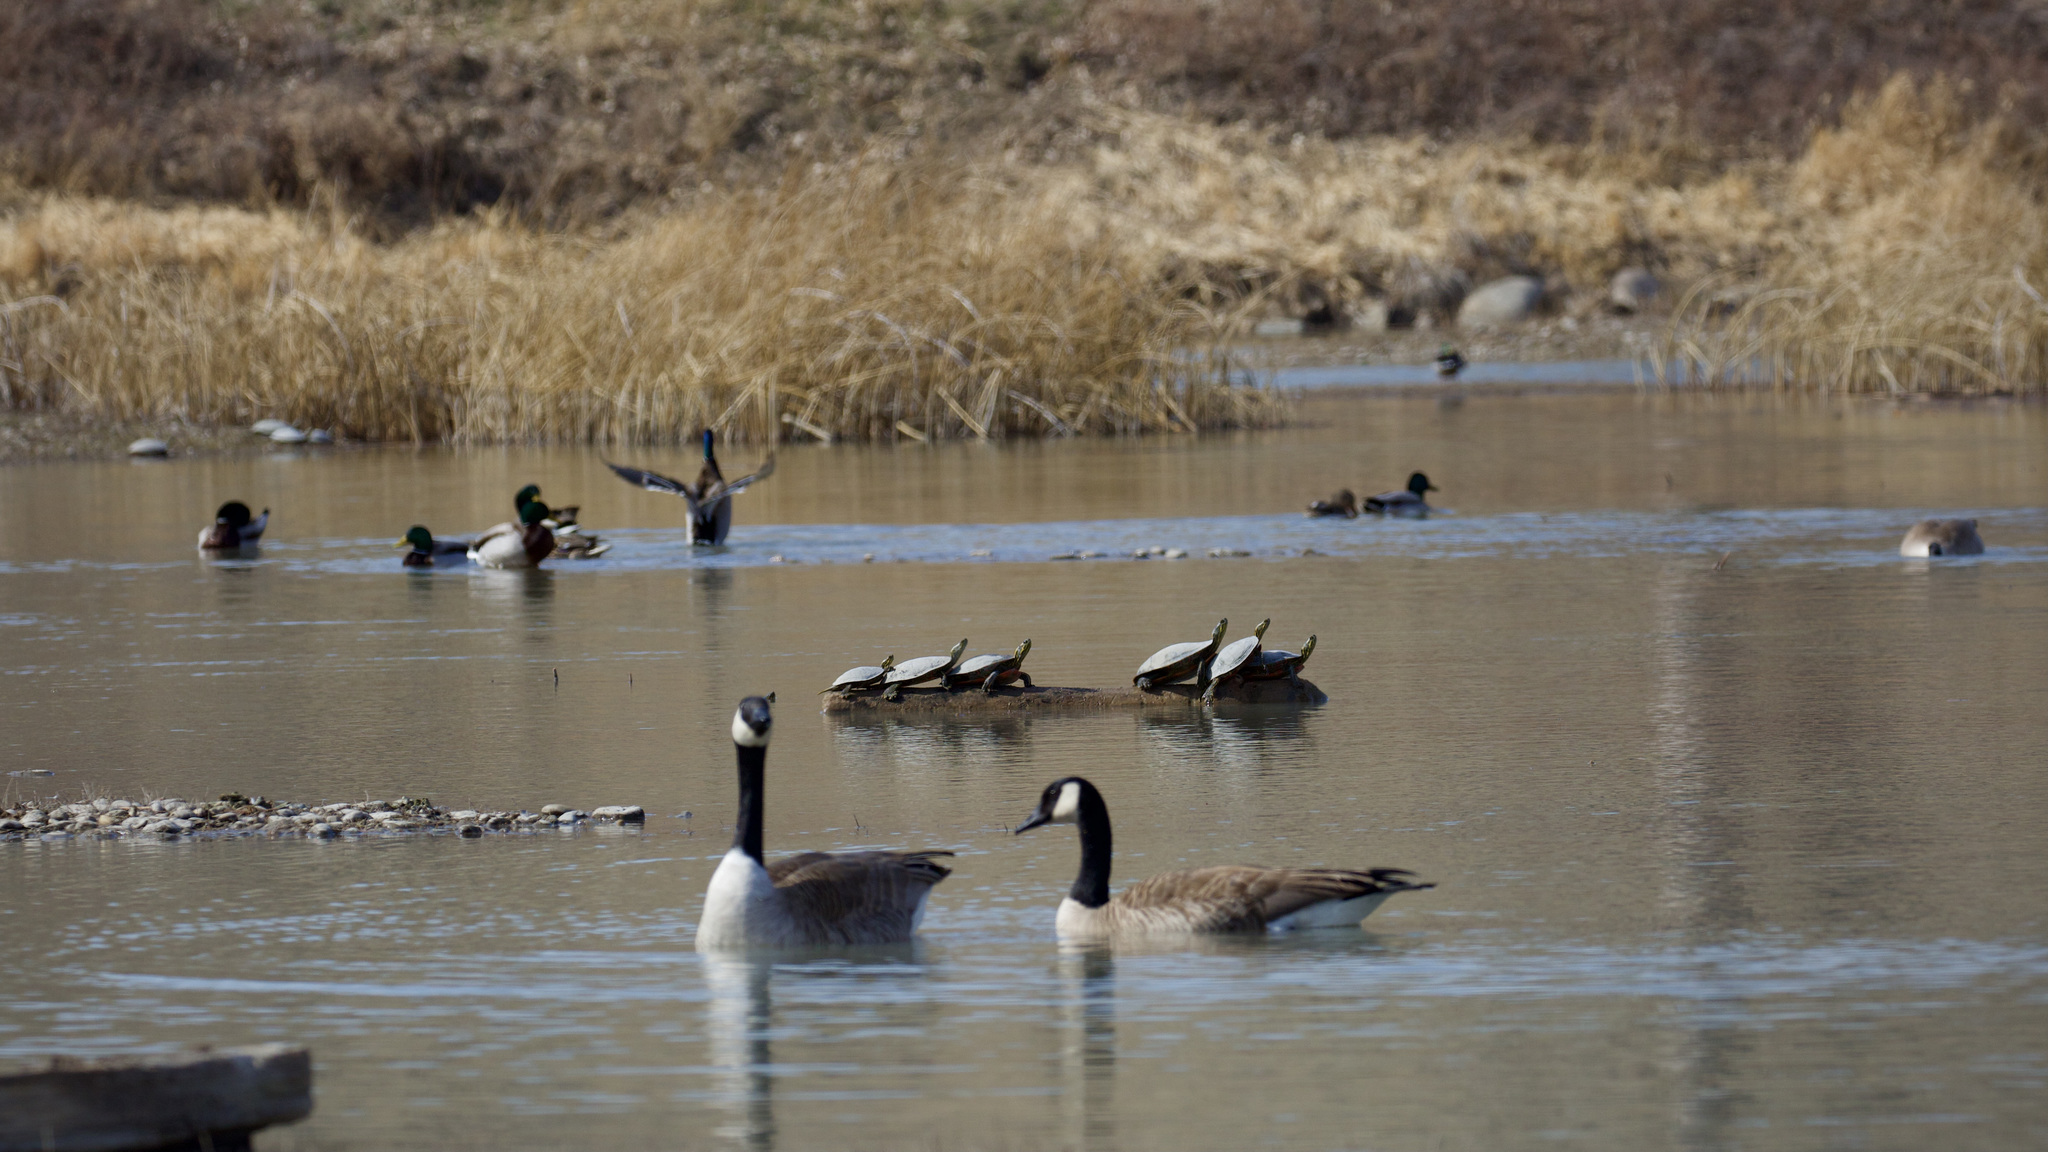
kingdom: Animalia
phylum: Chordata
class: Testudines
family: Emydidae
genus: Chrysemys
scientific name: Chrysemys picta
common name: Painted turtle
